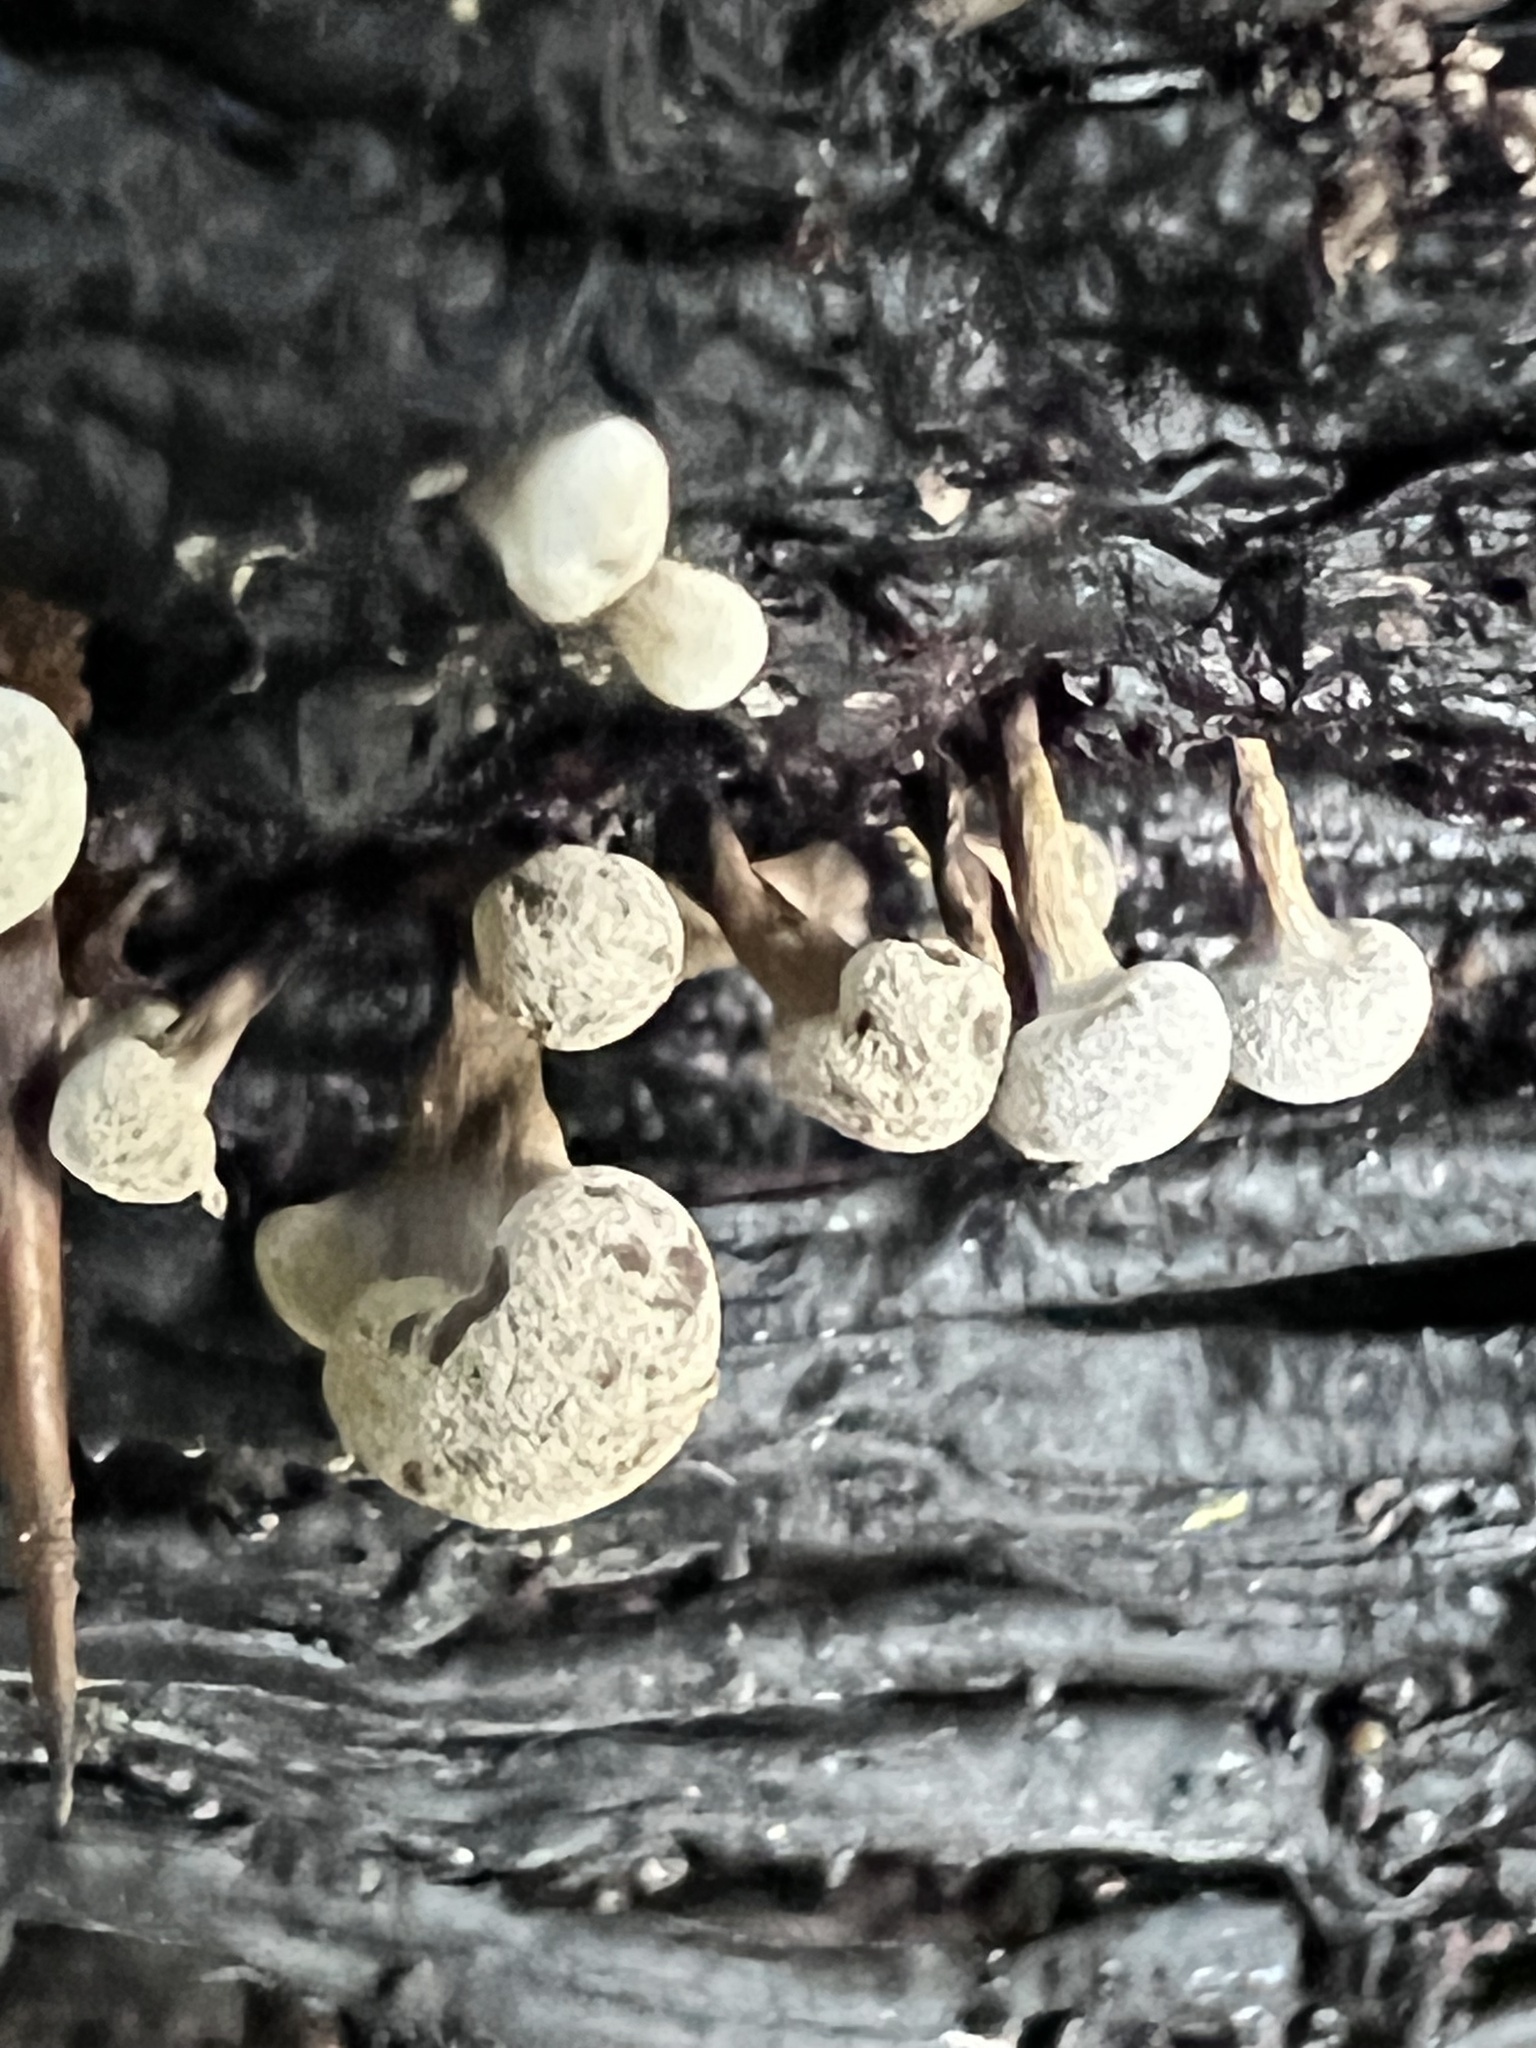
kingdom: Fungi
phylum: Basidiomycota
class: Atractiellomycetes
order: Atractiellales
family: Phleogenaceae
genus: Phleogena
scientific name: Phleogena faginea
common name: Fenugreek stalkball
